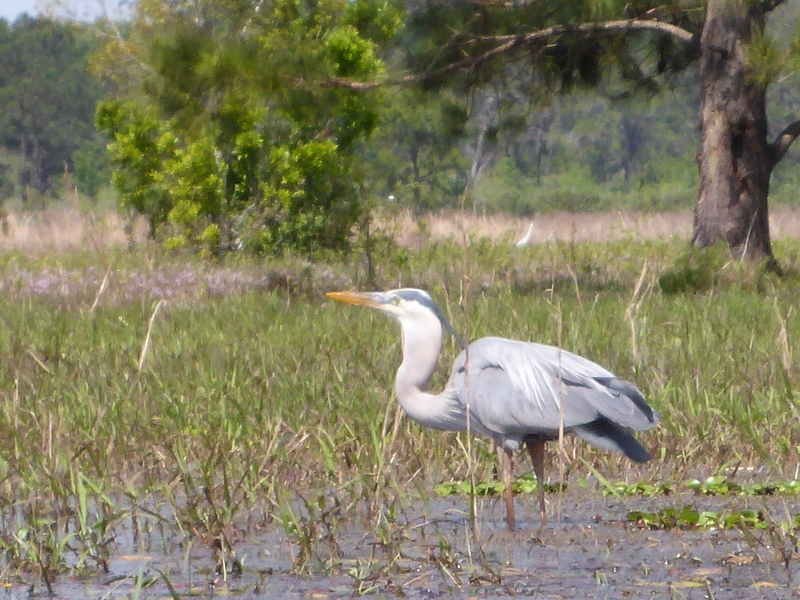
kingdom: Animalia
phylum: Chordata
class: Aves
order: Pelecaniformes
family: Ardeidae
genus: Ardea
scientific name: Ardea herodias
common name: Great blue heron
